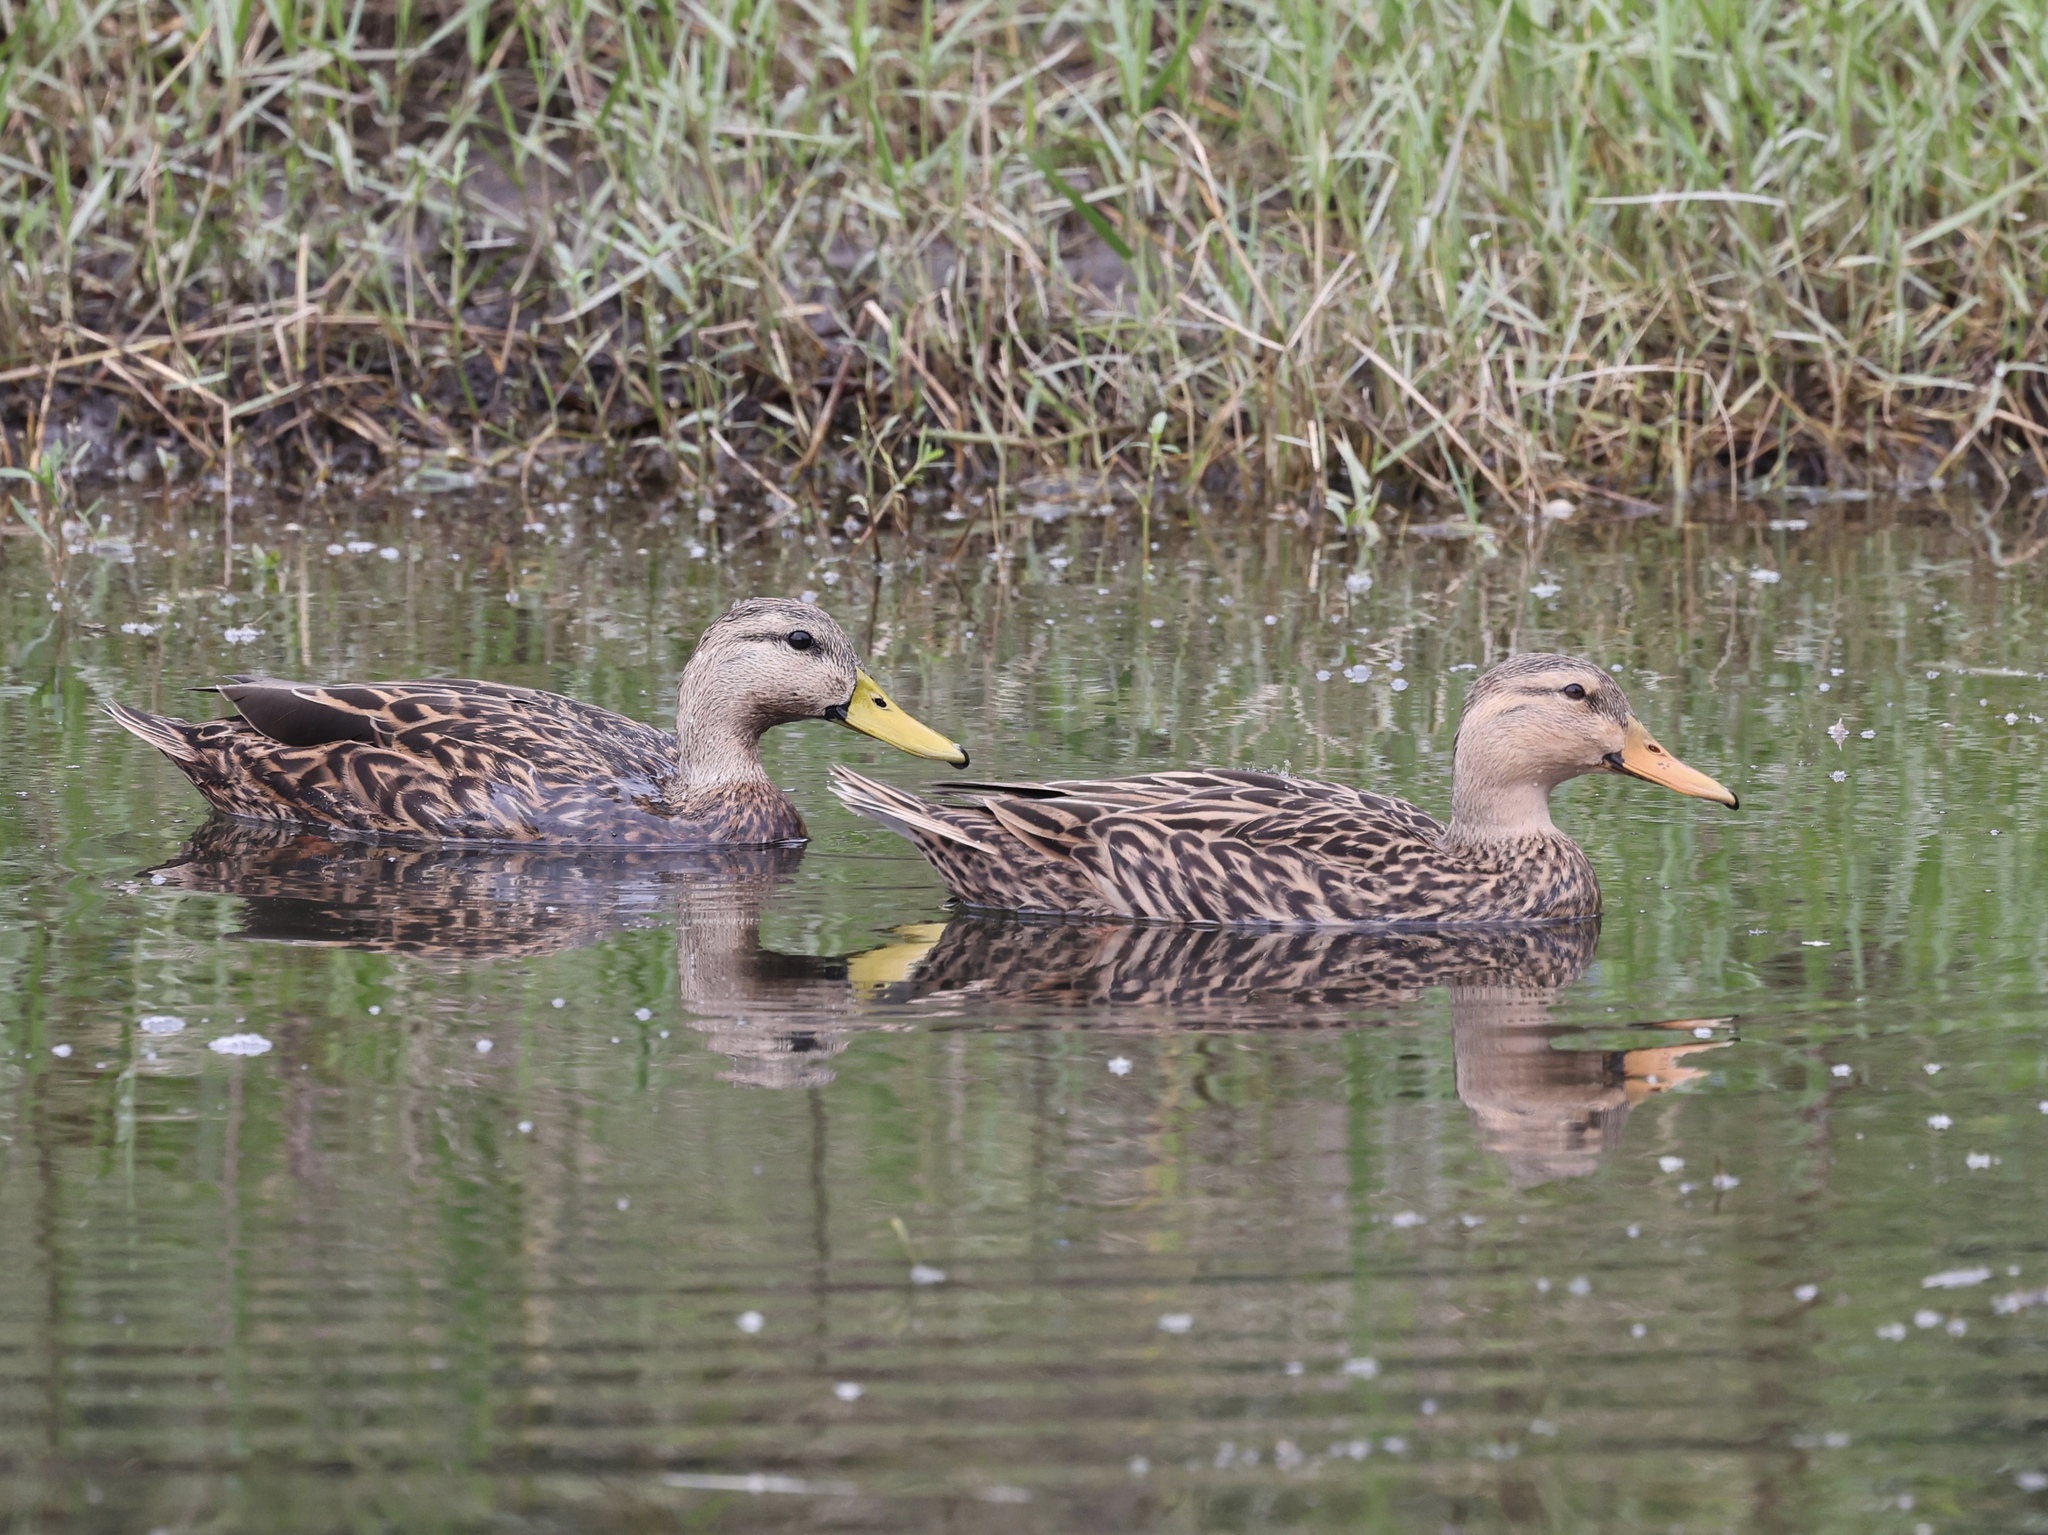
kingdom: Animalia
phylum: Chordata
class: Aves
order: Anseriformes
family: Anatidae
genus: Anas
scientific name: Anas fulvigula
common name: Mottled duck
